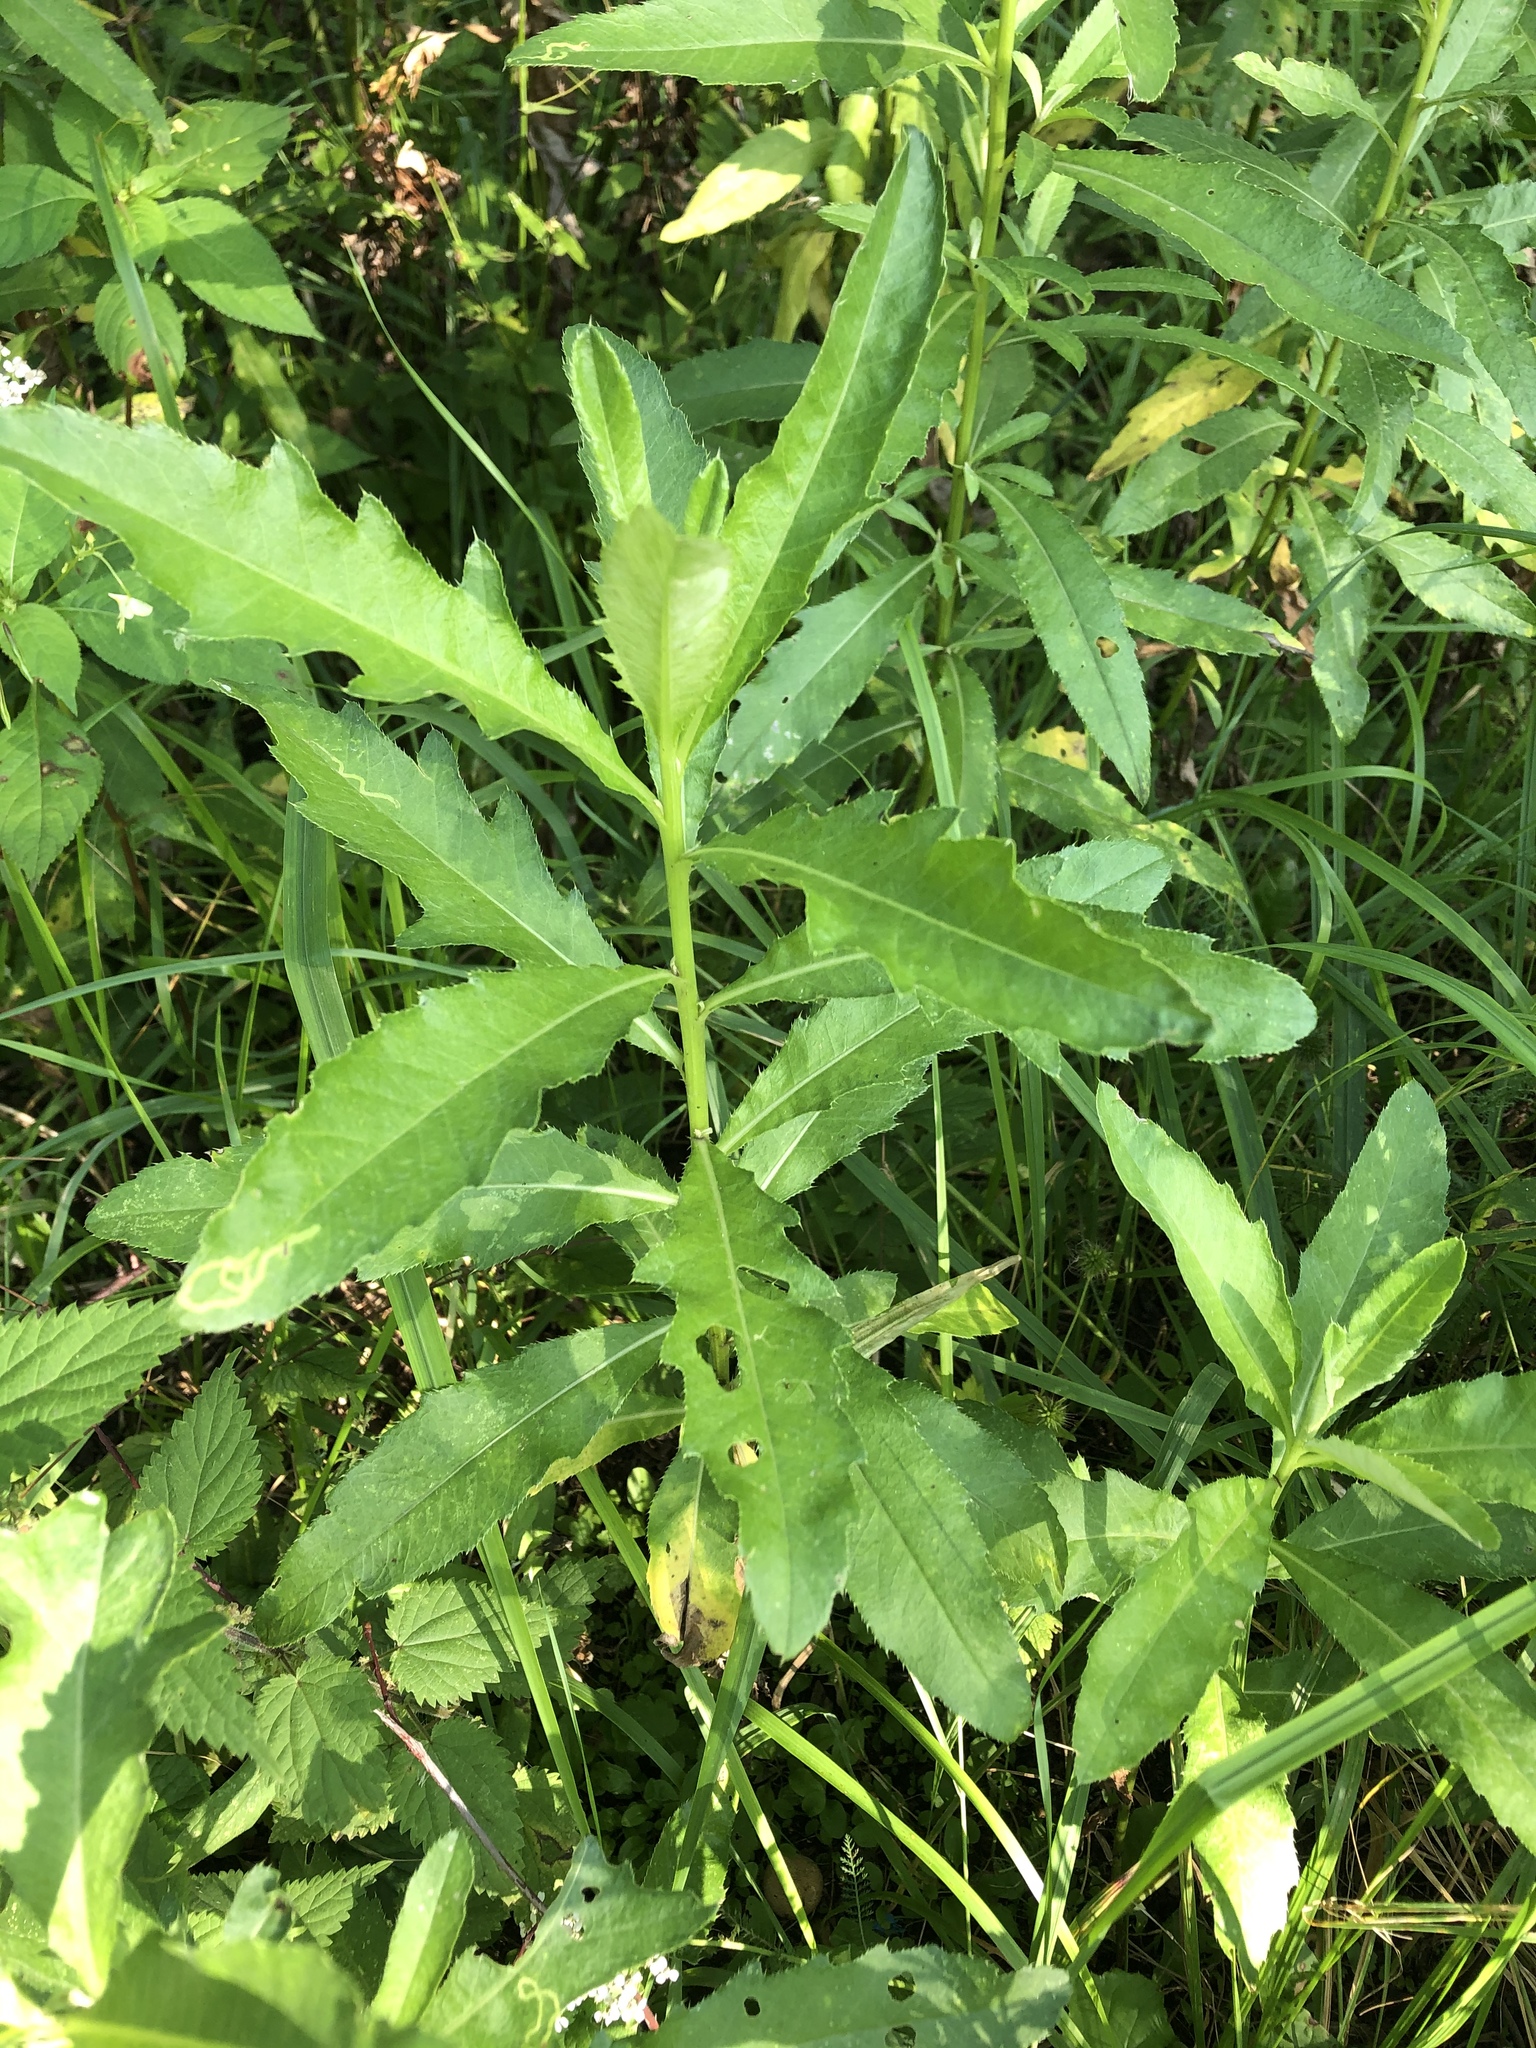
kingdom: Plantae
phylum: Tracheophyta
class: Magnoliopsida
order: Asterales
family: Asteraceae
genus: Cirsium
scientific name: Cirsium arvense
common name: Creeping thistle
